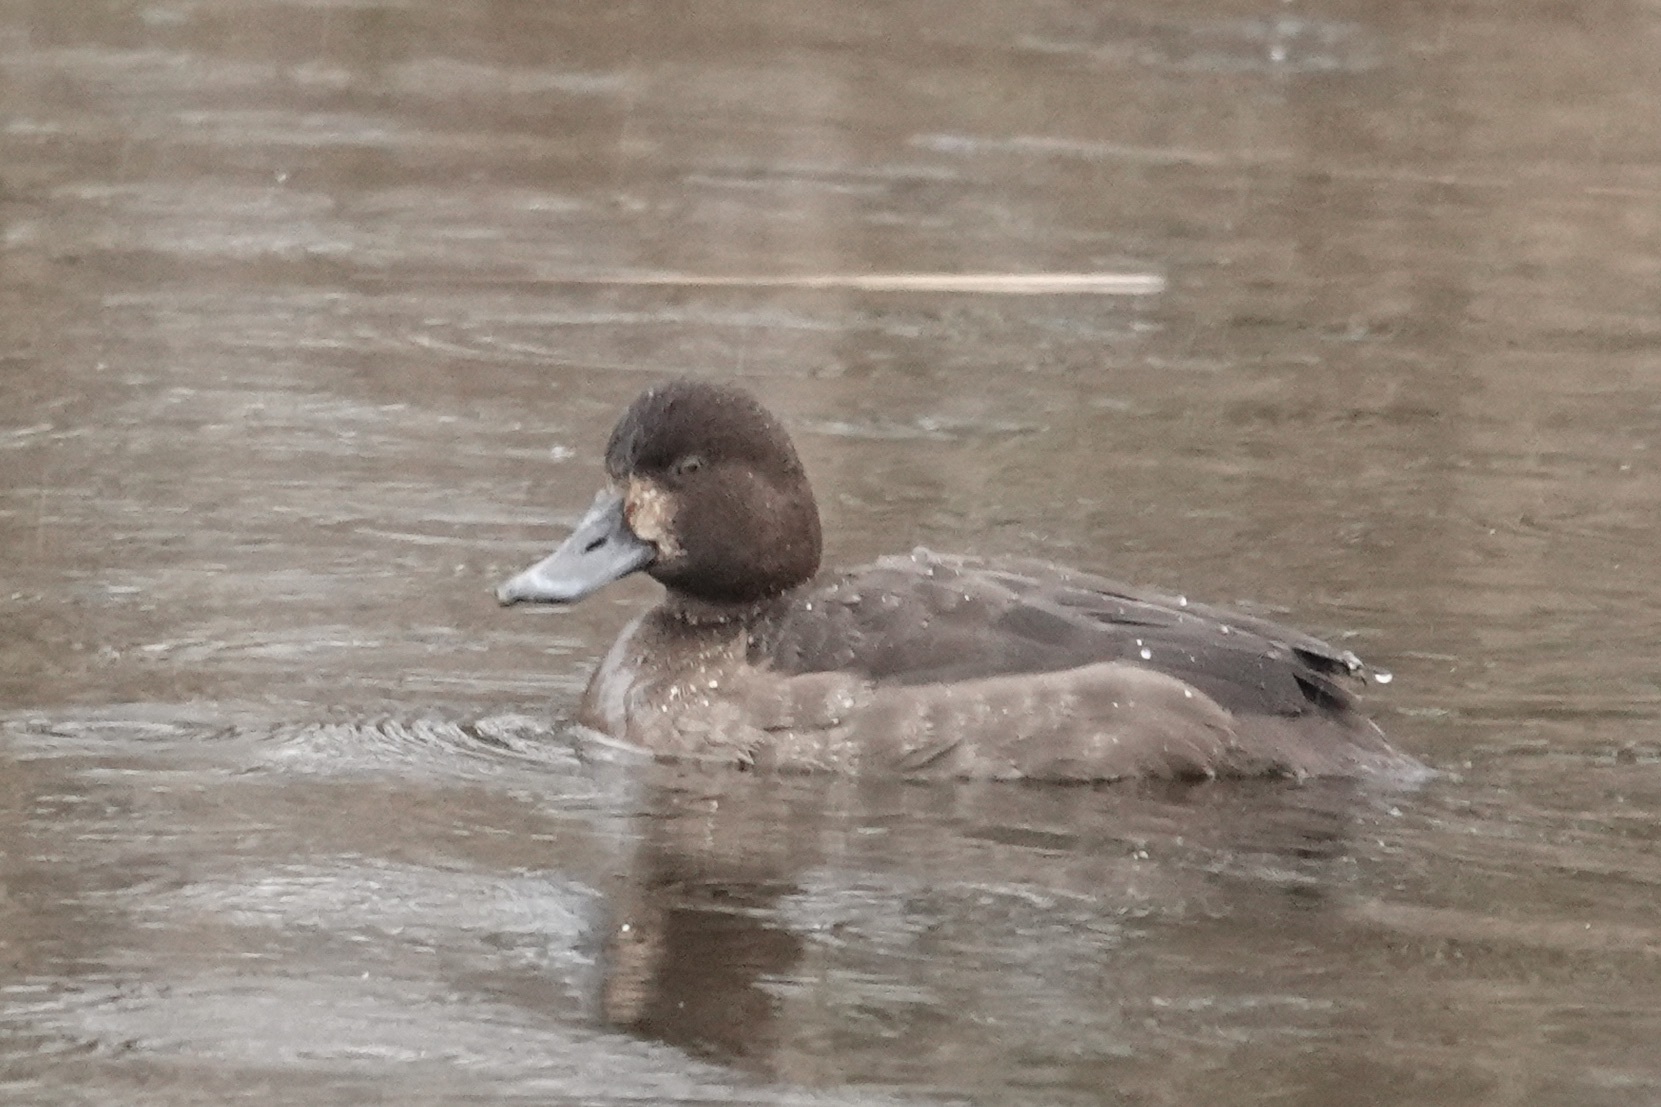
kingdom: Animalia
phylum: Chordata
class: Aves
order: Anseriformes
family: Anatidae
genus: Aythya
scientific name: Aythya affinis
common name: Lesser scaup
